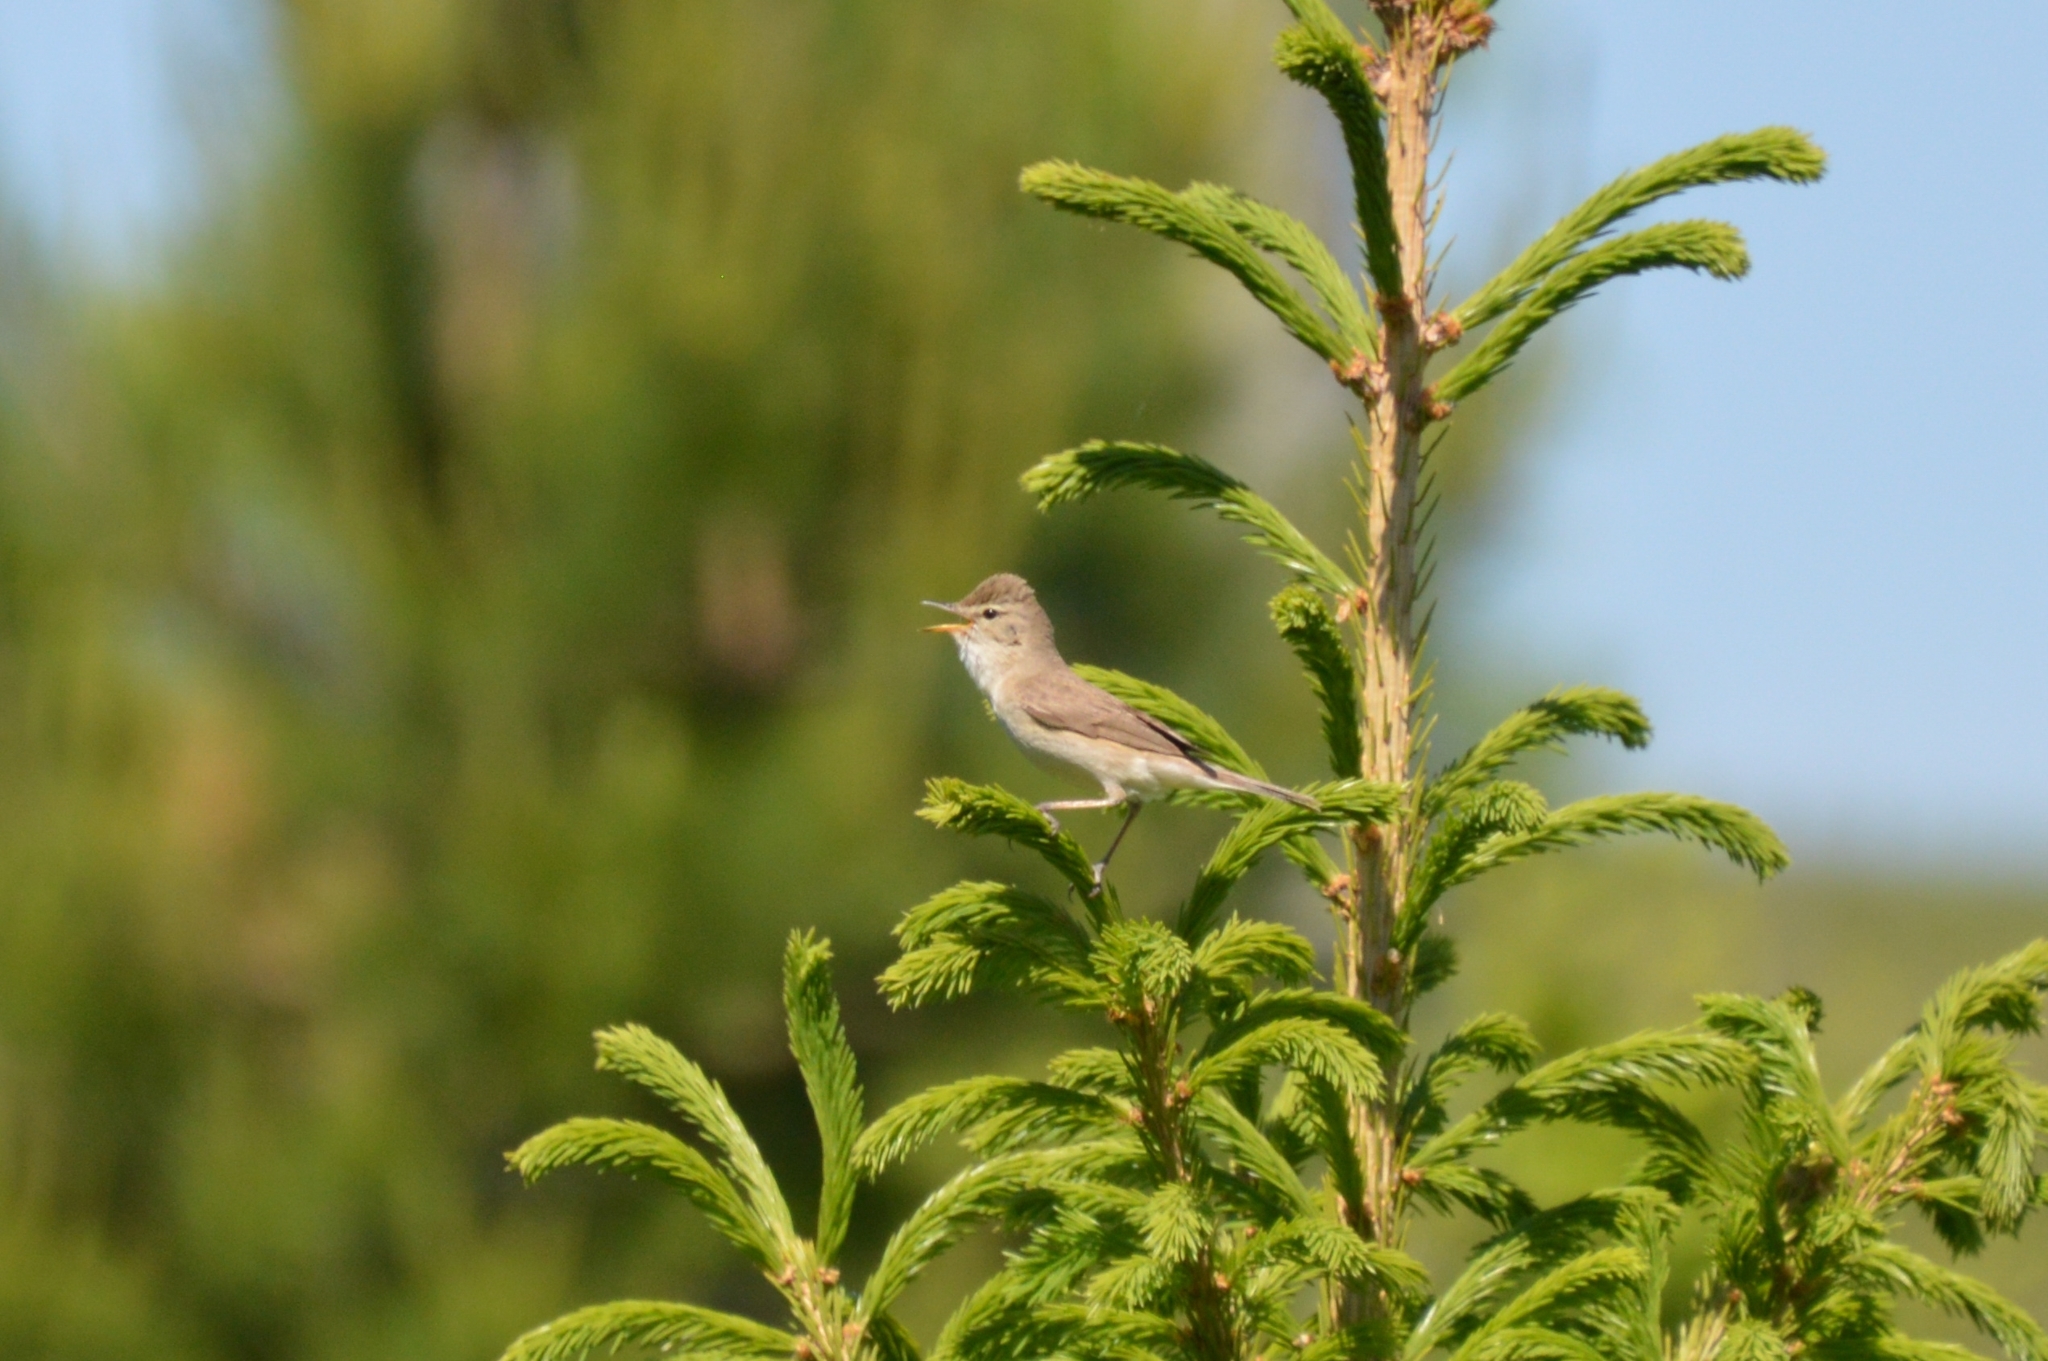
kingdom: Animalia
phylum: Chordata
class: Aves
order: Passeriformes
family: Acrocephalidae
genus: Iduna
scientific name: Iduna caligata
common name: Booted warbler
